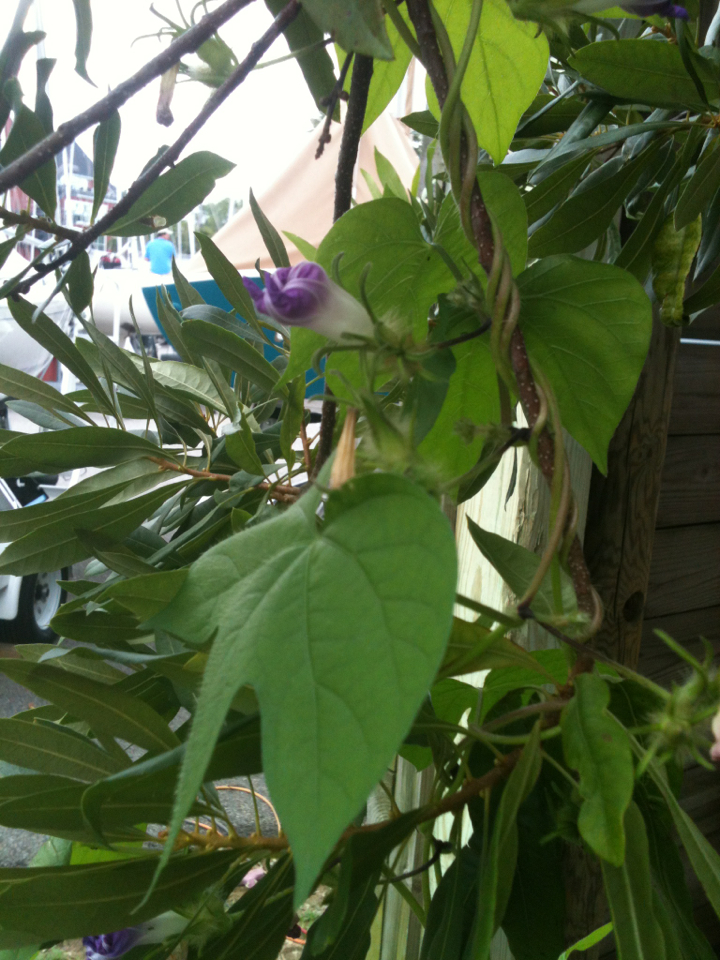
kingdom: Plantae
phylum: Tracheophyta
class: Magnoliopsida
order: Solanales
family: Convolvulaceae
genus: Ipomoea
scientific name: Ipomoea hederacea
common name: Ivy-leaved morning-glory
